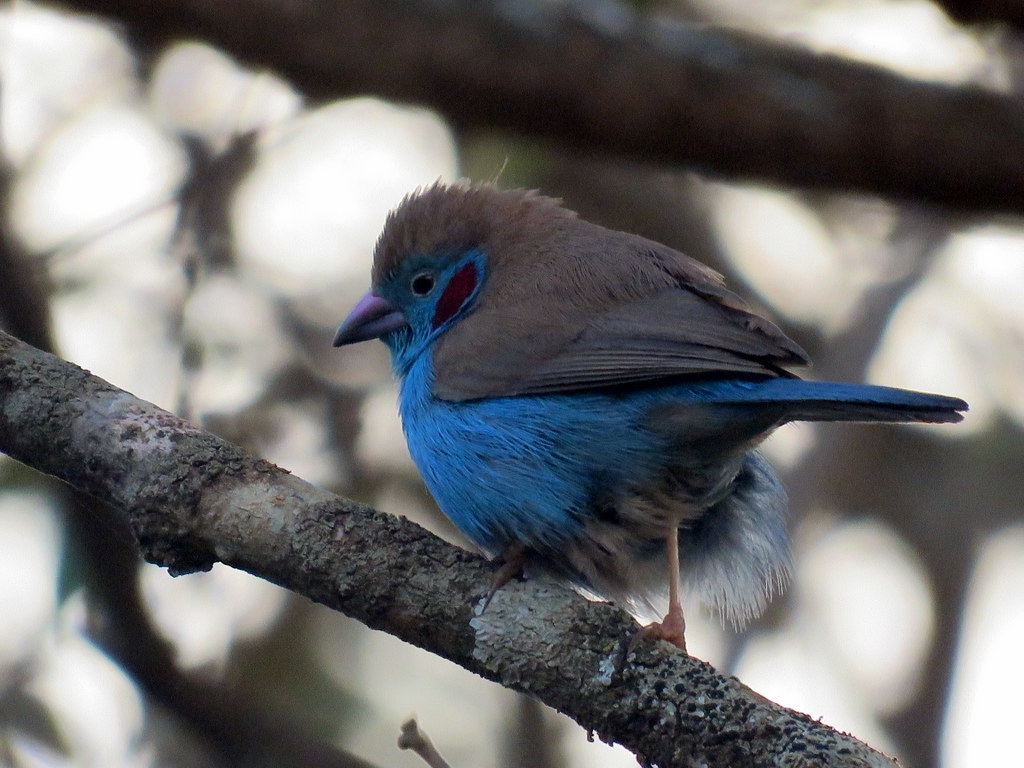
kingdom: Animalia
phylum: Chordata
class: Aves
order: Passeriformes
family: Estrildidae
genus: Uraeginthus
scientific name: Uraeginthus bengalus
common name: Red-cheeked cordon-bleu
